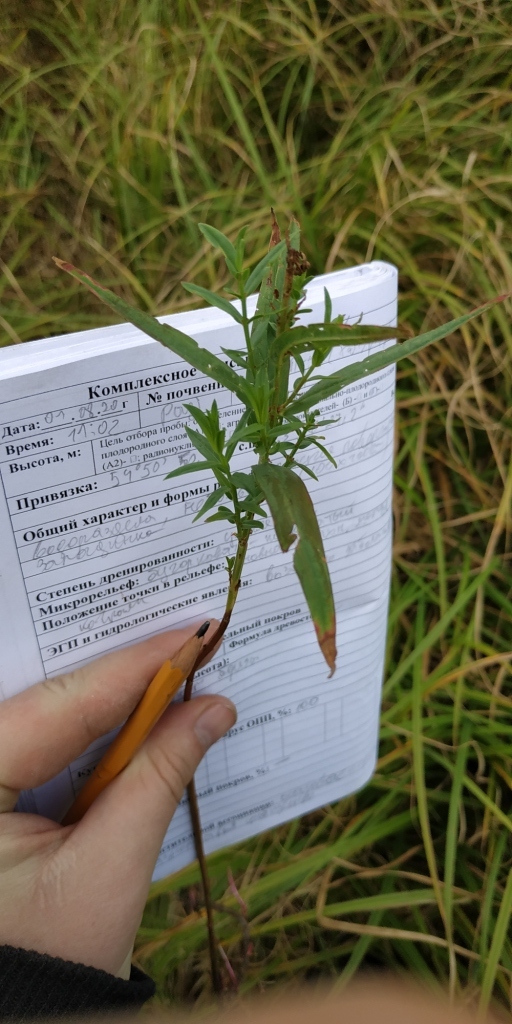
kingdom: Plantae
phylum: Tracheophyta
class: Magnoliopsida
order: Myrtales
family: Lythraceae
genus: Lythrum
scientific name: Lythrum salicaria
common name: Purple loosestrife
